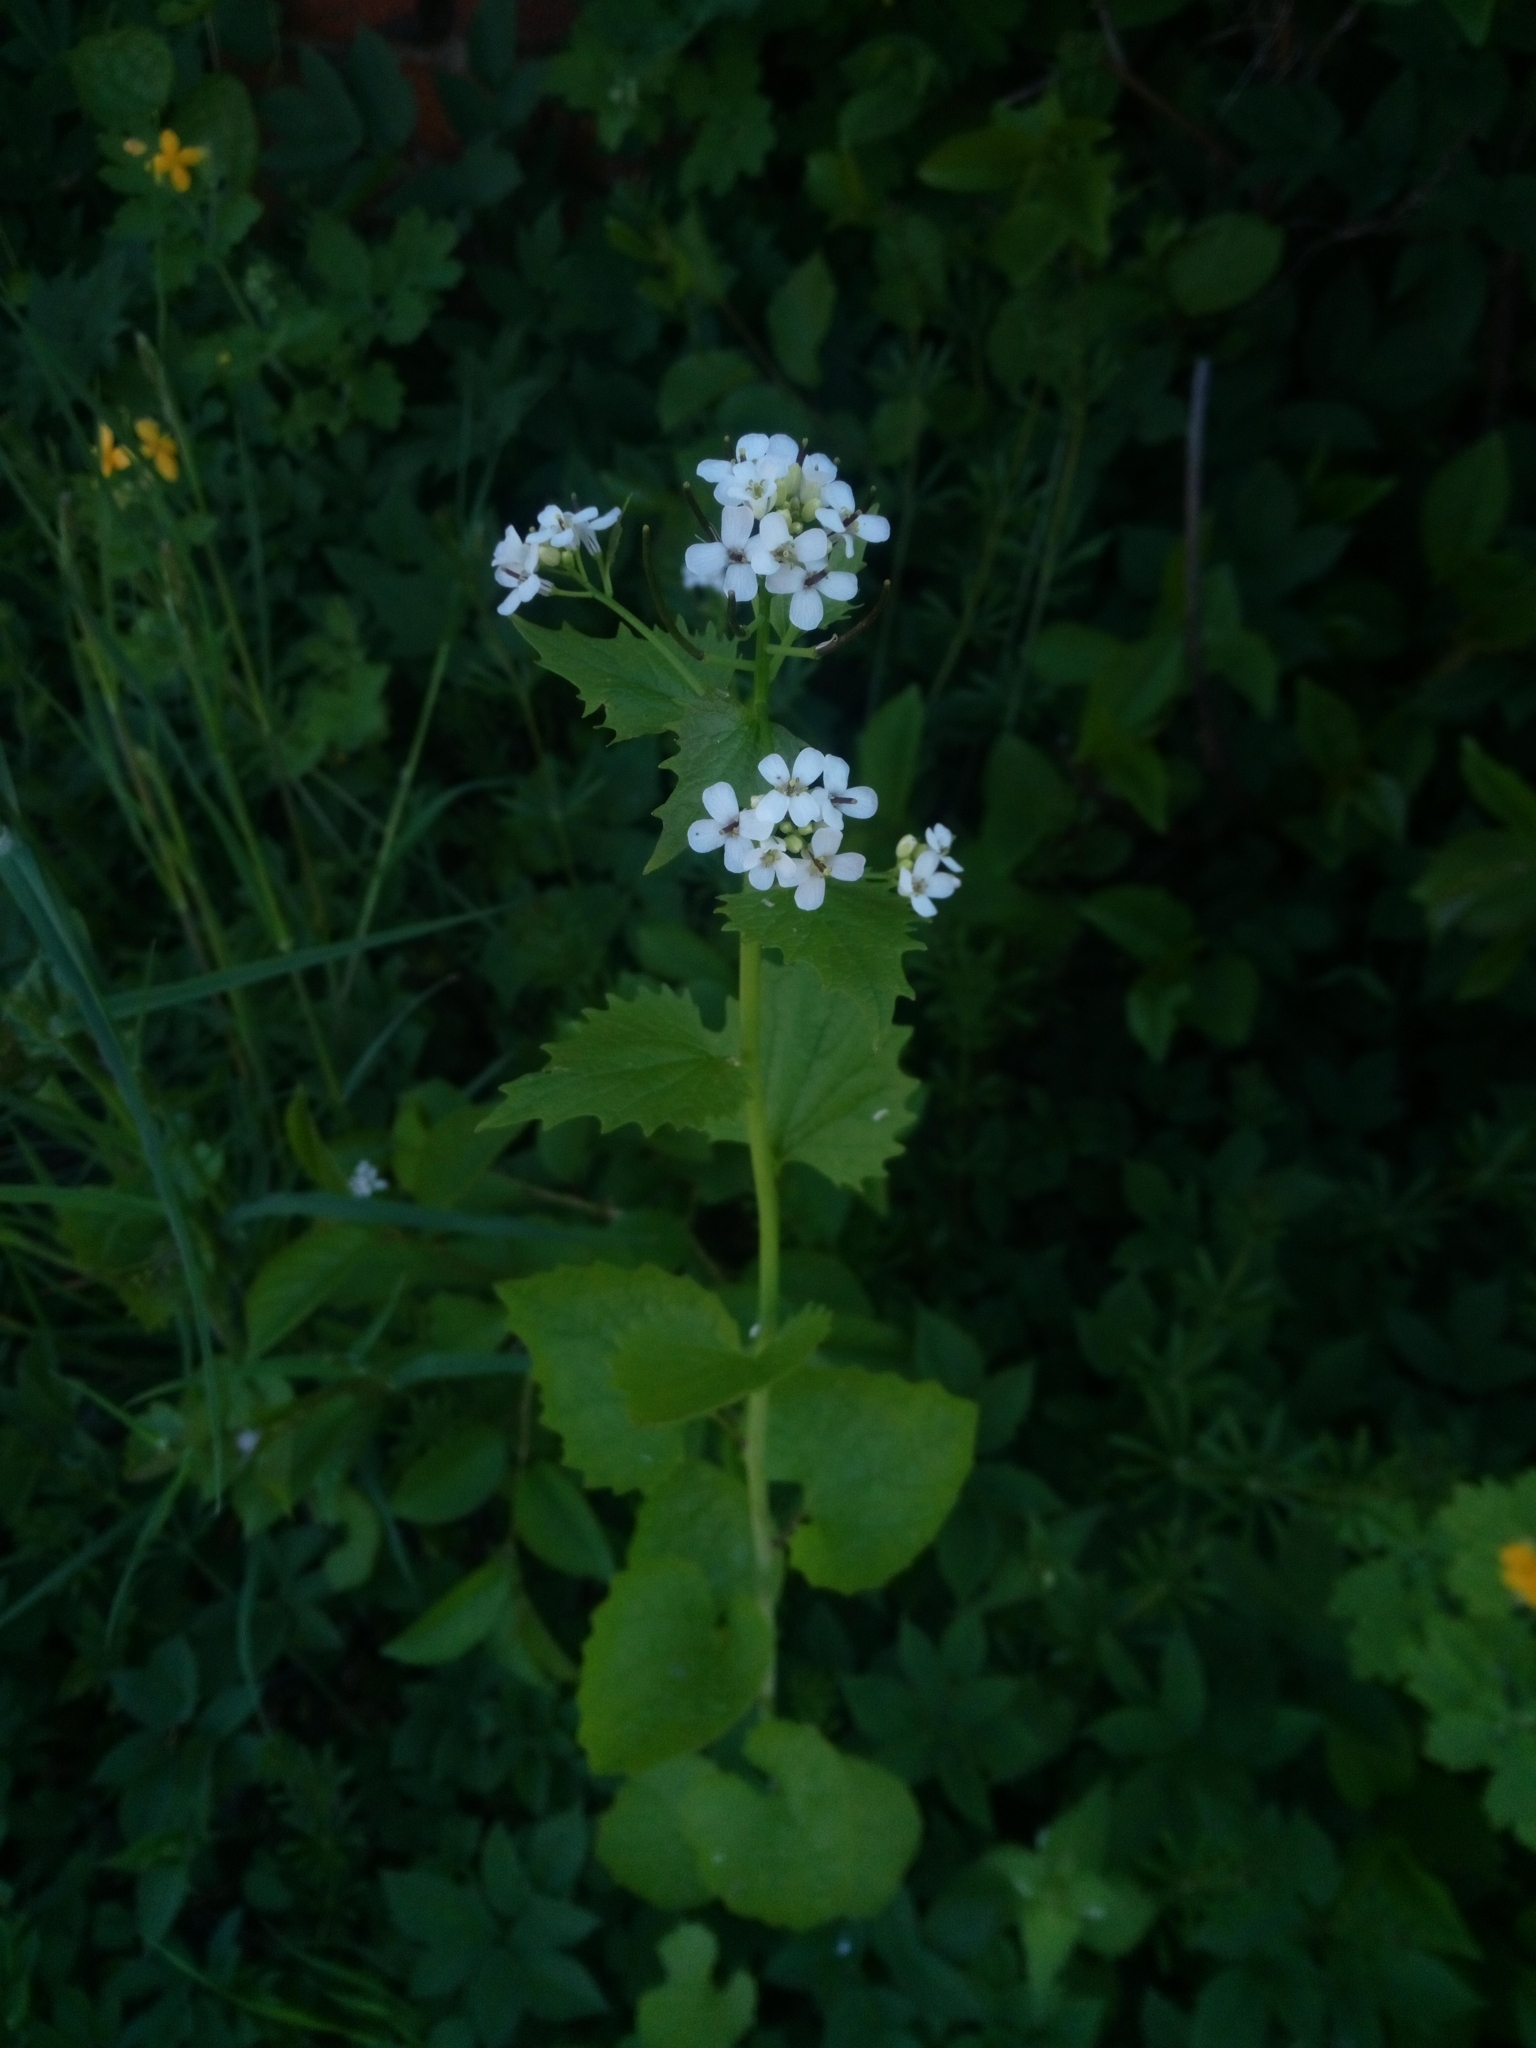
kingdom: Plantae
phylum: Tracheophyta
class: Magnoliopsida
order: Brassicales
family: Brassicaceae
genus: Alliaria
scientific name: Alliaria petiolata
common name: Garlic mustard
